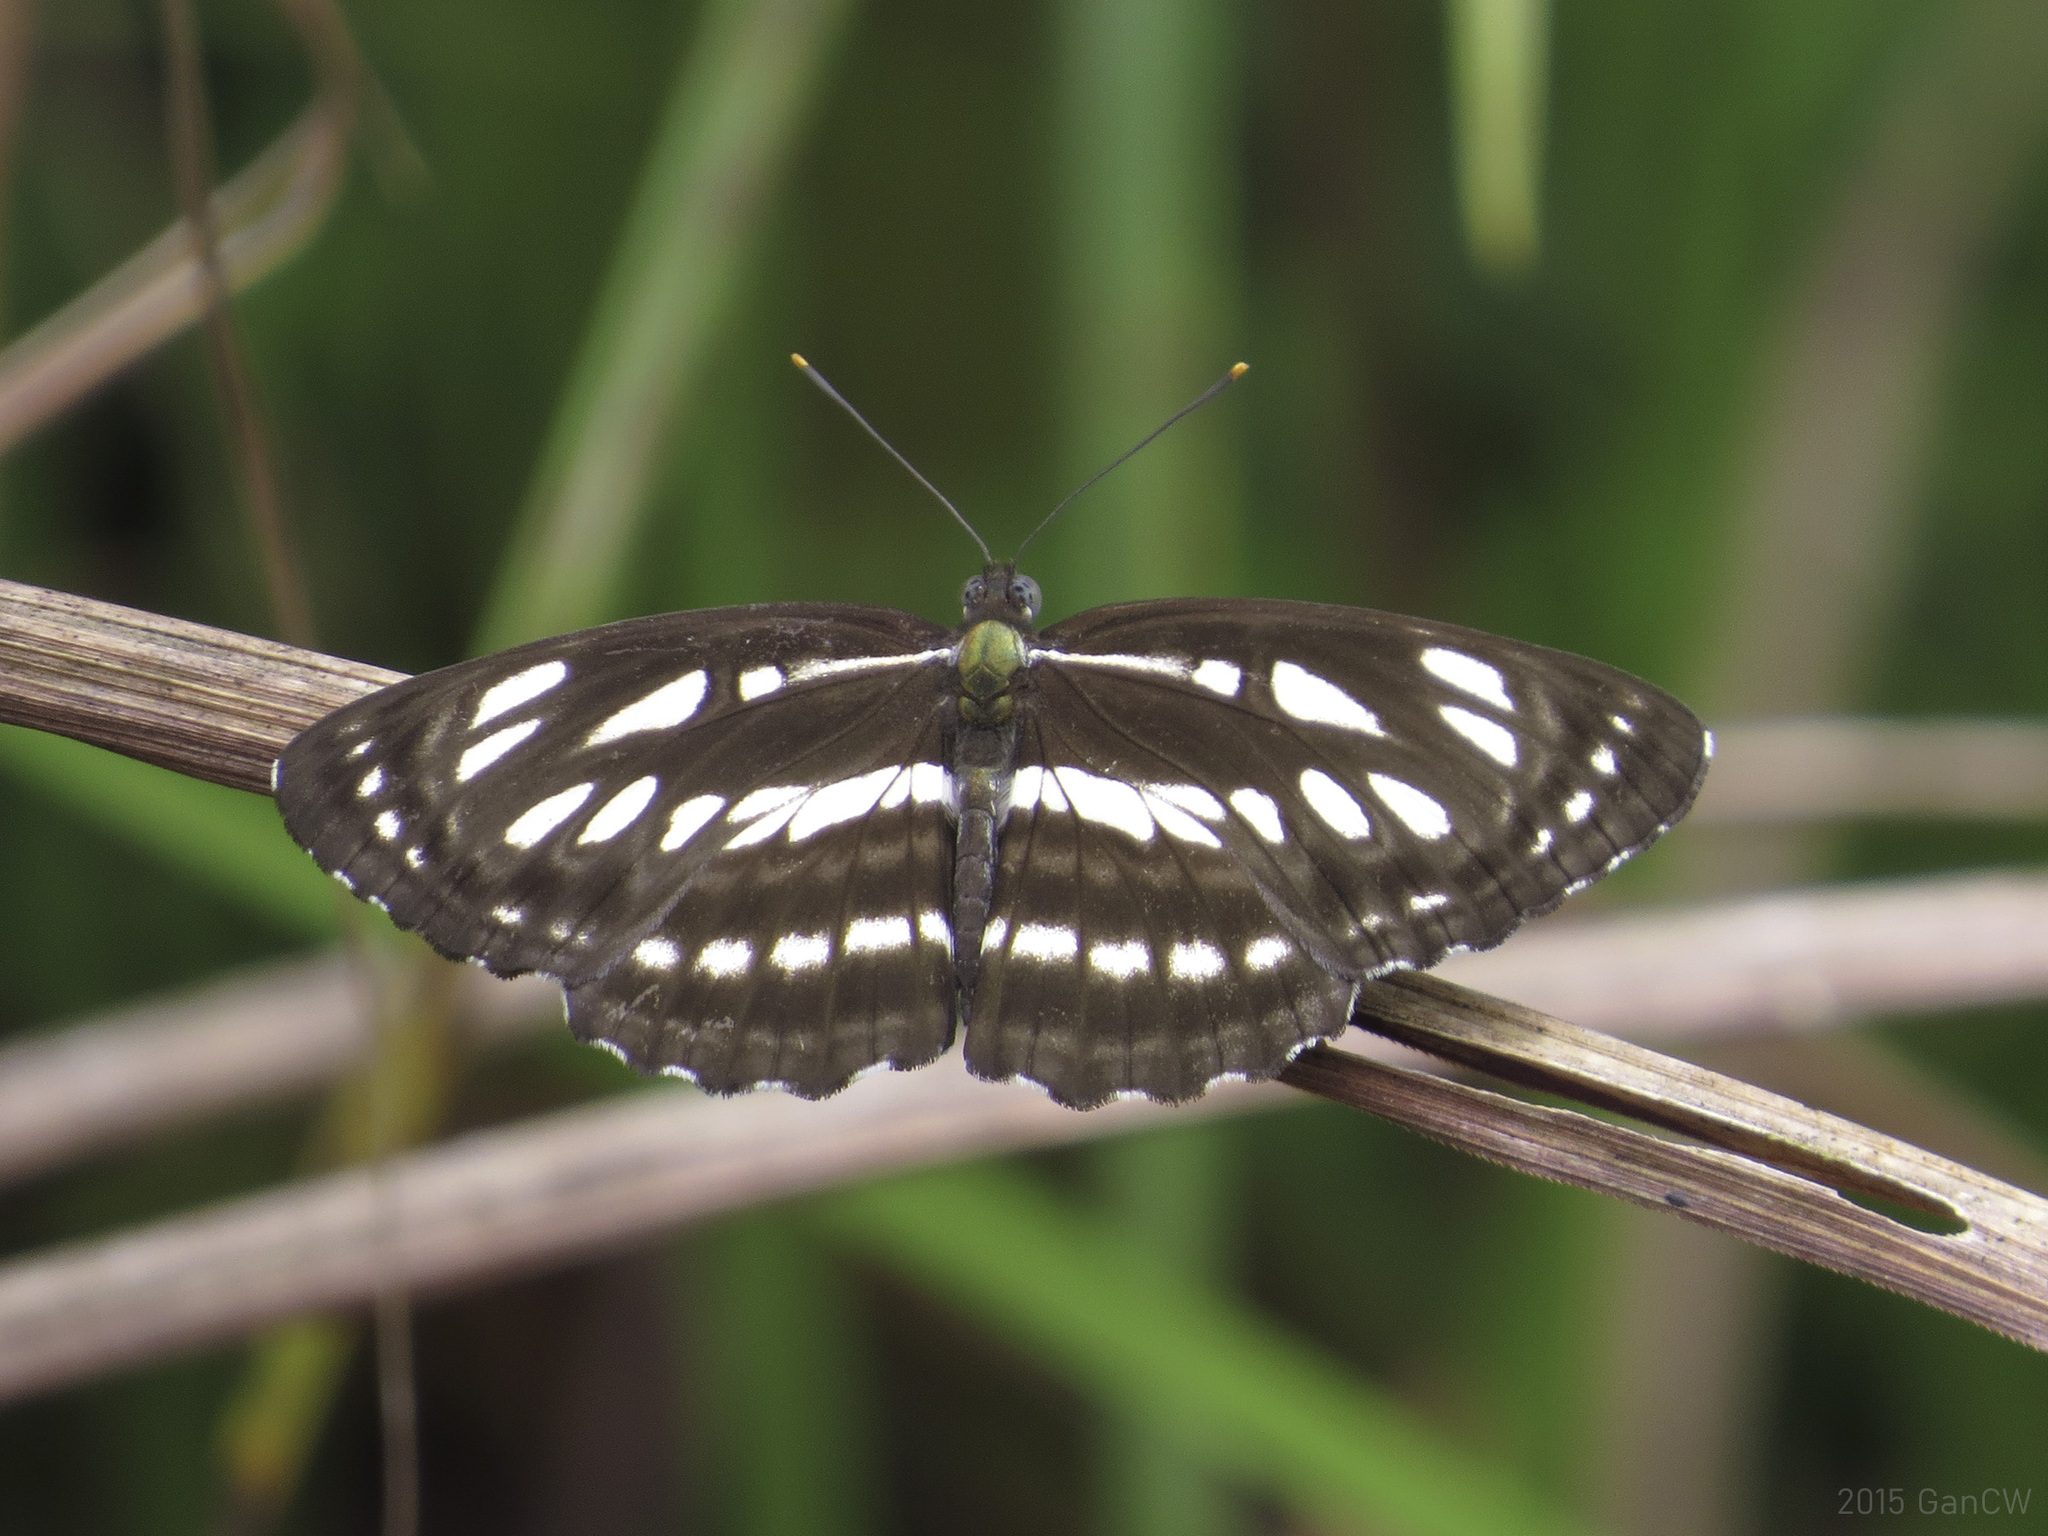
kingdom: Animalia
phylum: Arthropoda
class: Insecta
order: Lepidoptera
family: Nymphalidae
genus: Neptis
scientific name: Neptis hylas
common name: Common sailer
